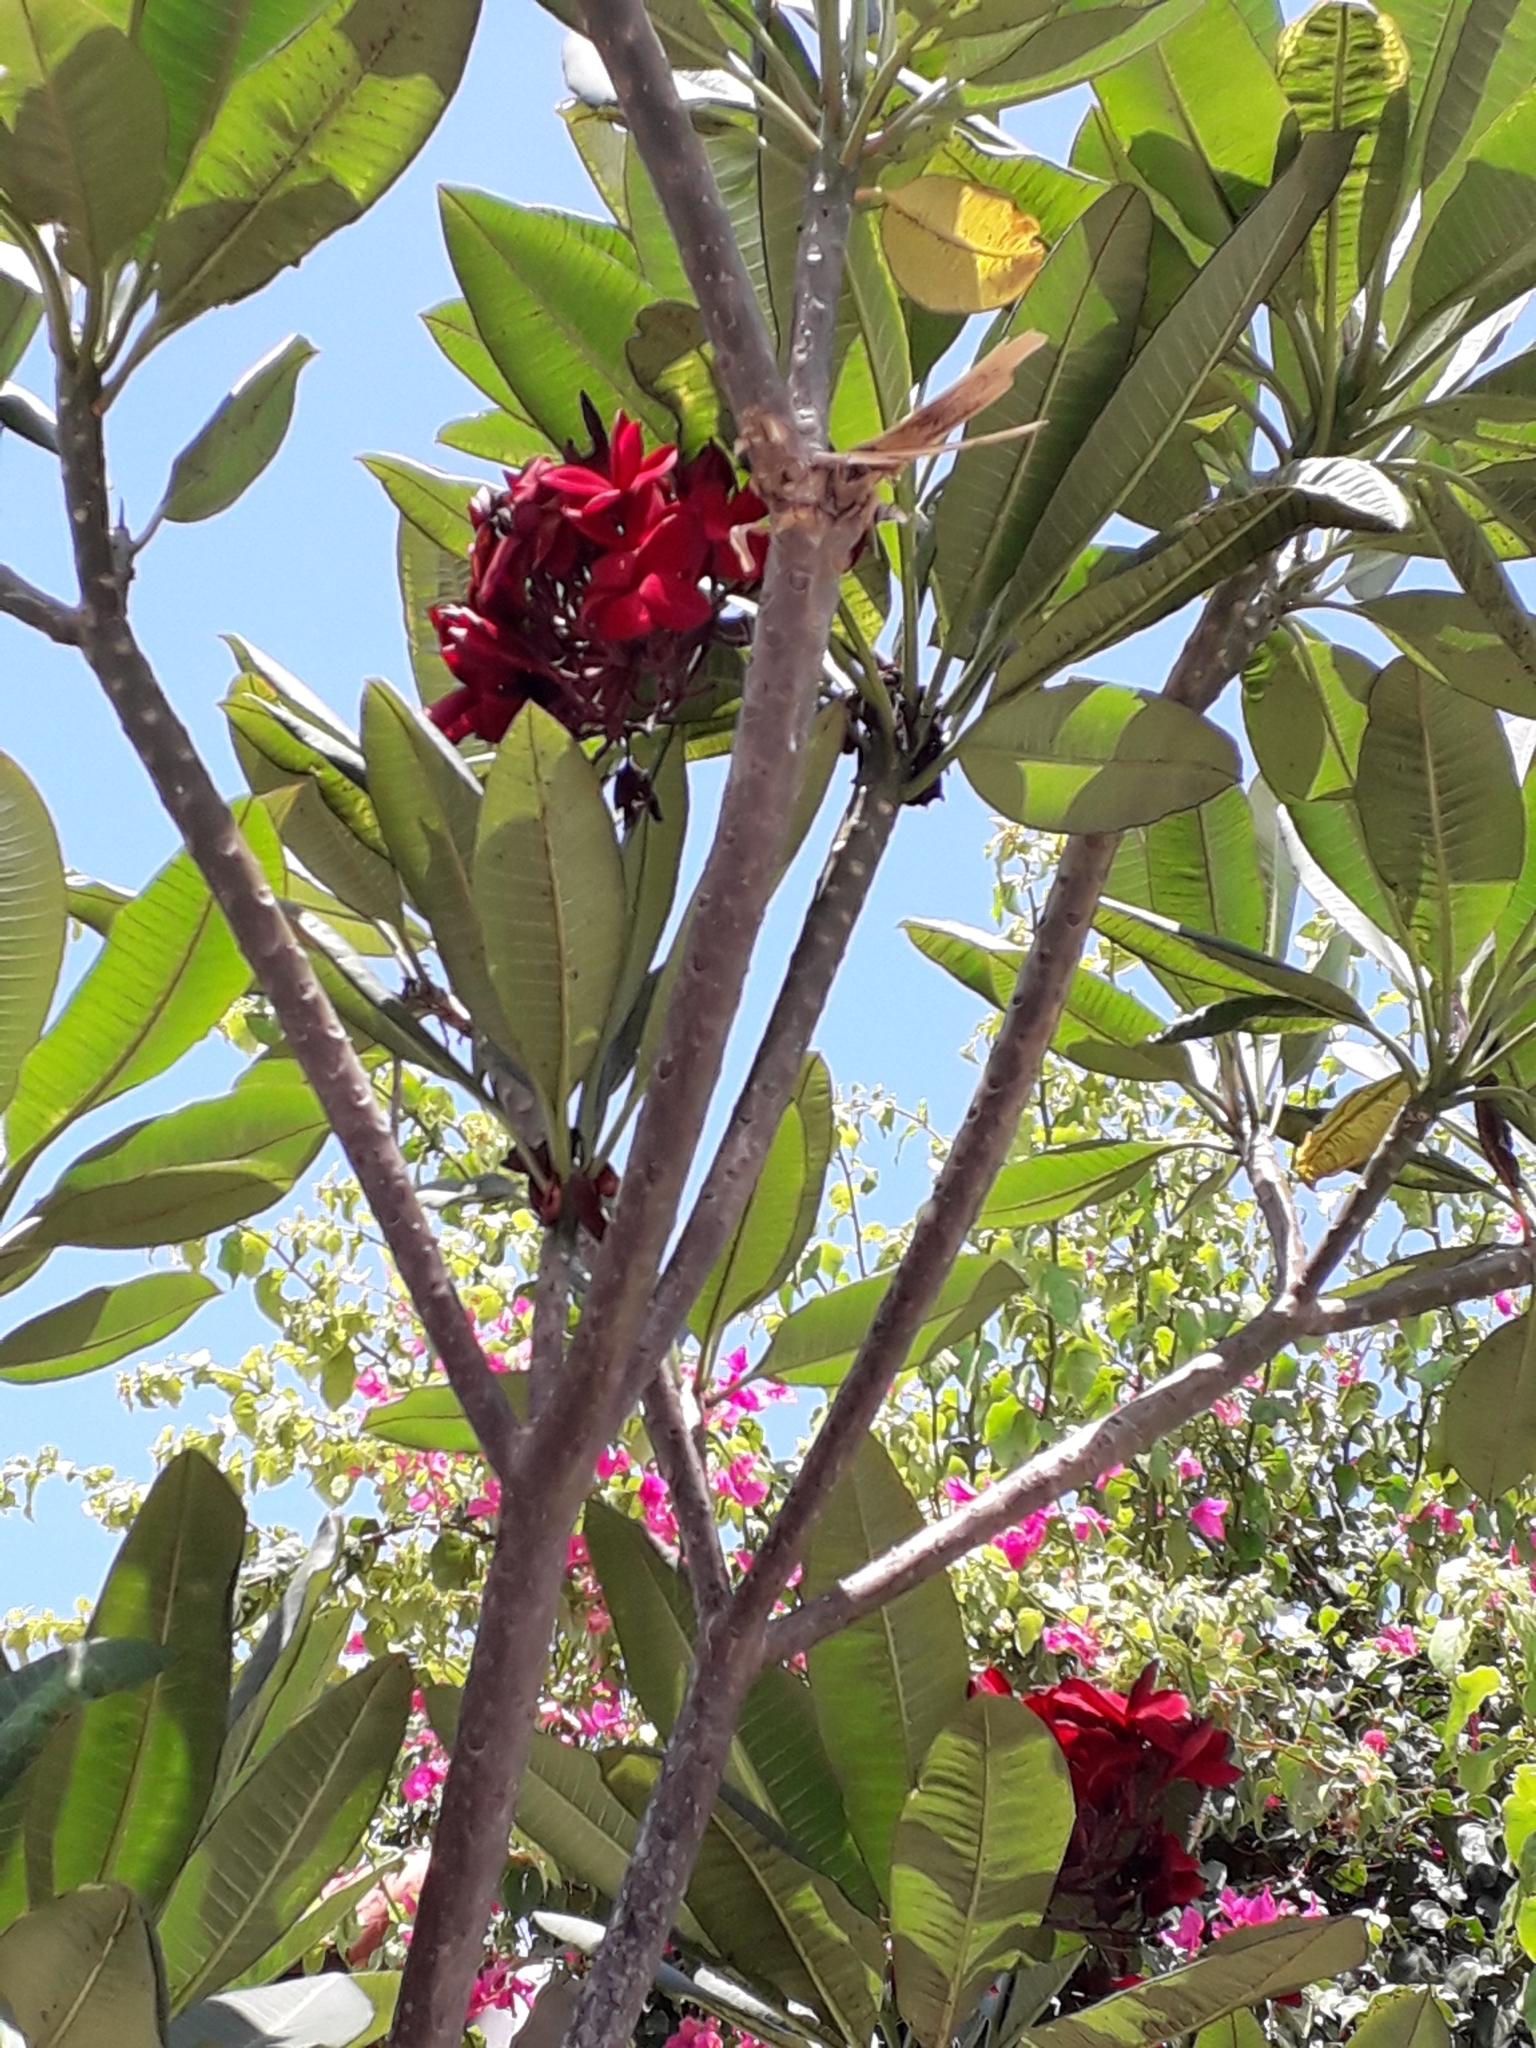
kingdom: Plantae
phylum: Tracheophyta
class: Magnoliopsida
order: Gentianales
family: Apocynaceae
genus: Plumeria
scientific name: Plumeria rubra
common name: Pagoda-tree
